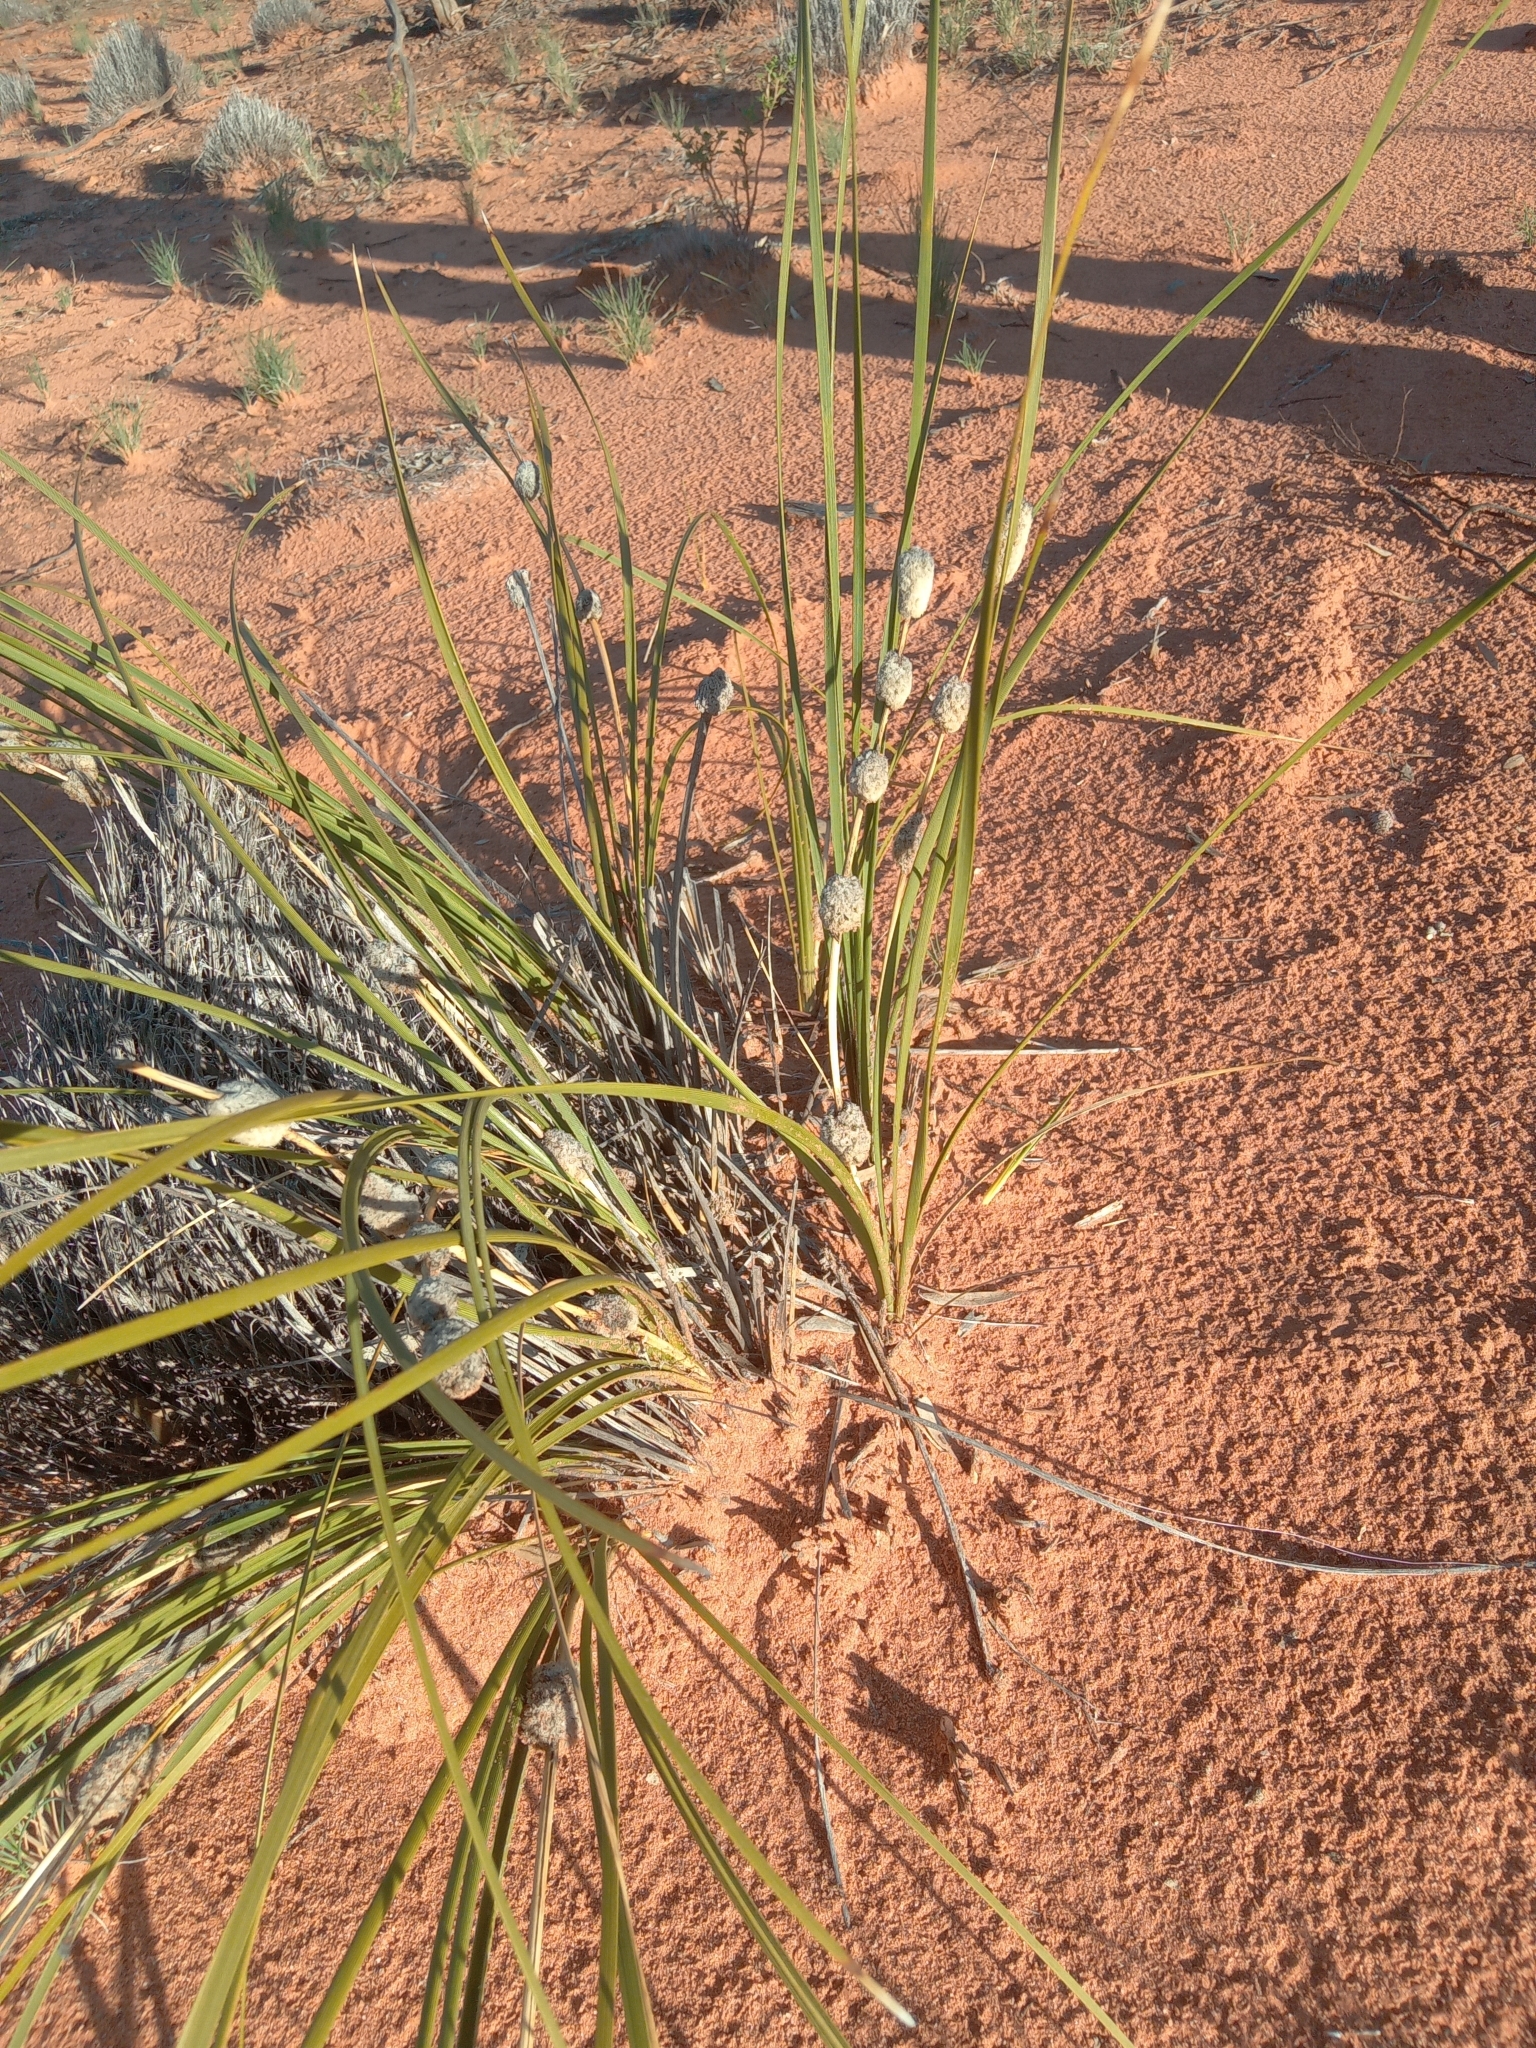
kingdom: Plantae
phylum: Tracheophyta
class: Liliopsida
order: Asparagales
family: Asparagaceae
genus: Lomandra
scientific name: Lomandra leucocephala
